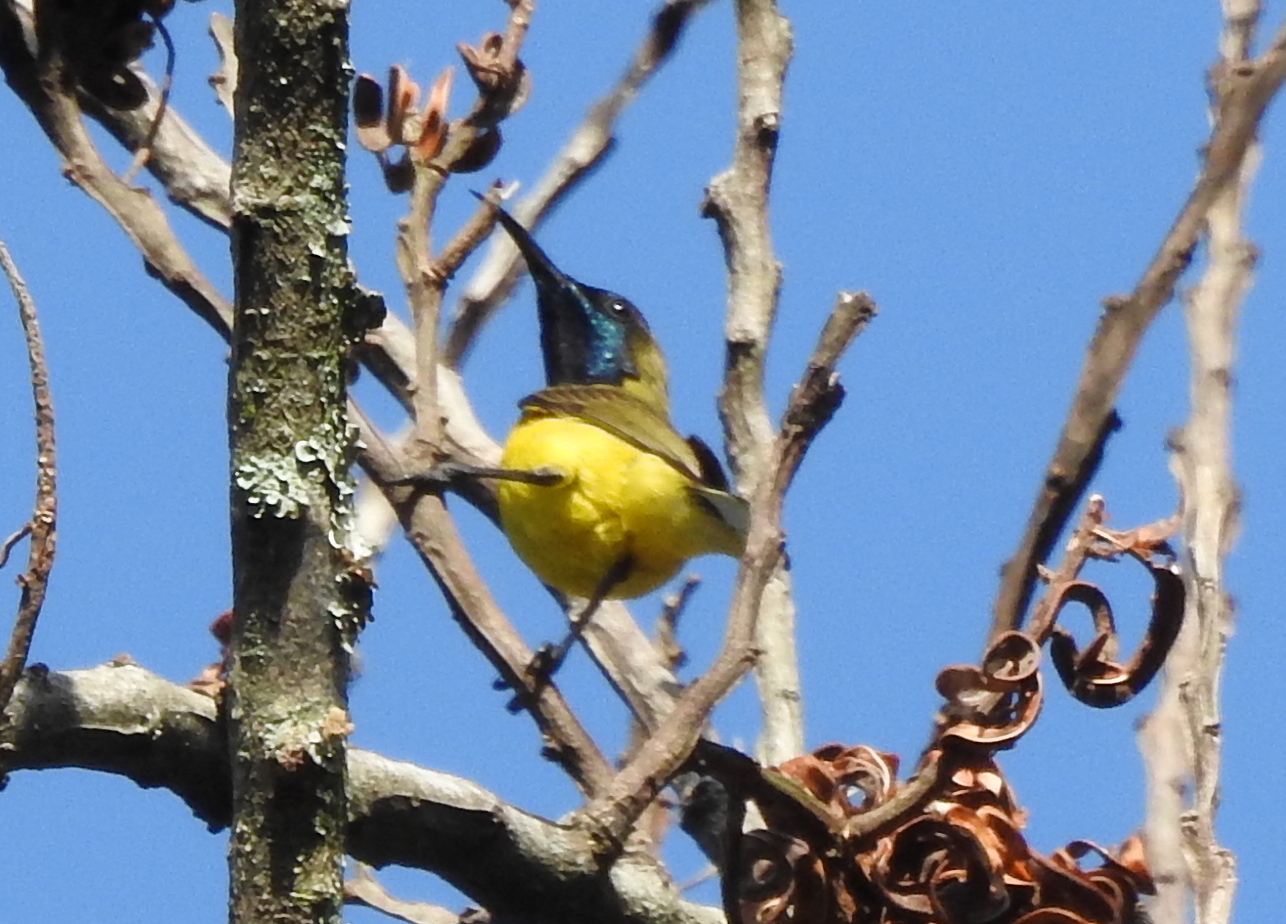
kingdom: Animalia
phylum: Chordata
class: Aves
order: Passeriformes
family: Nectariniidae
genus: Cinnyris
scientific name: Cinnyris
